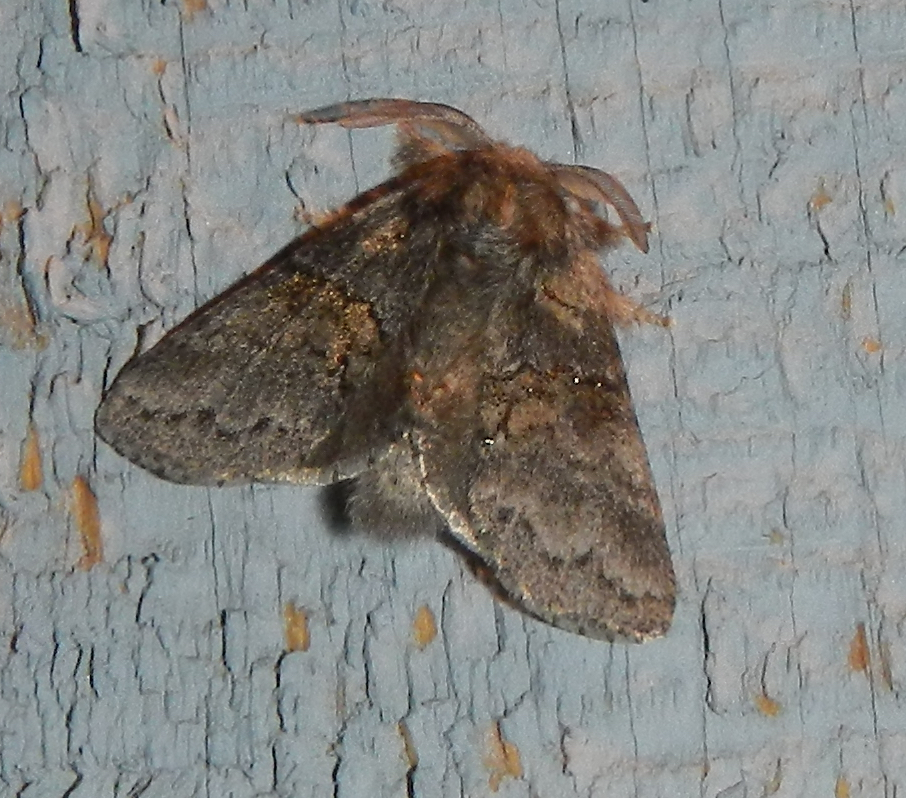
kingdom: Animalia
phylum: Arthropoda
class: Insecta
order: Lepidoptera
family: Notodontidae
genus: Gluphisia
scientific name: Gluphisia septentrionis
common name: Common gluphisia
